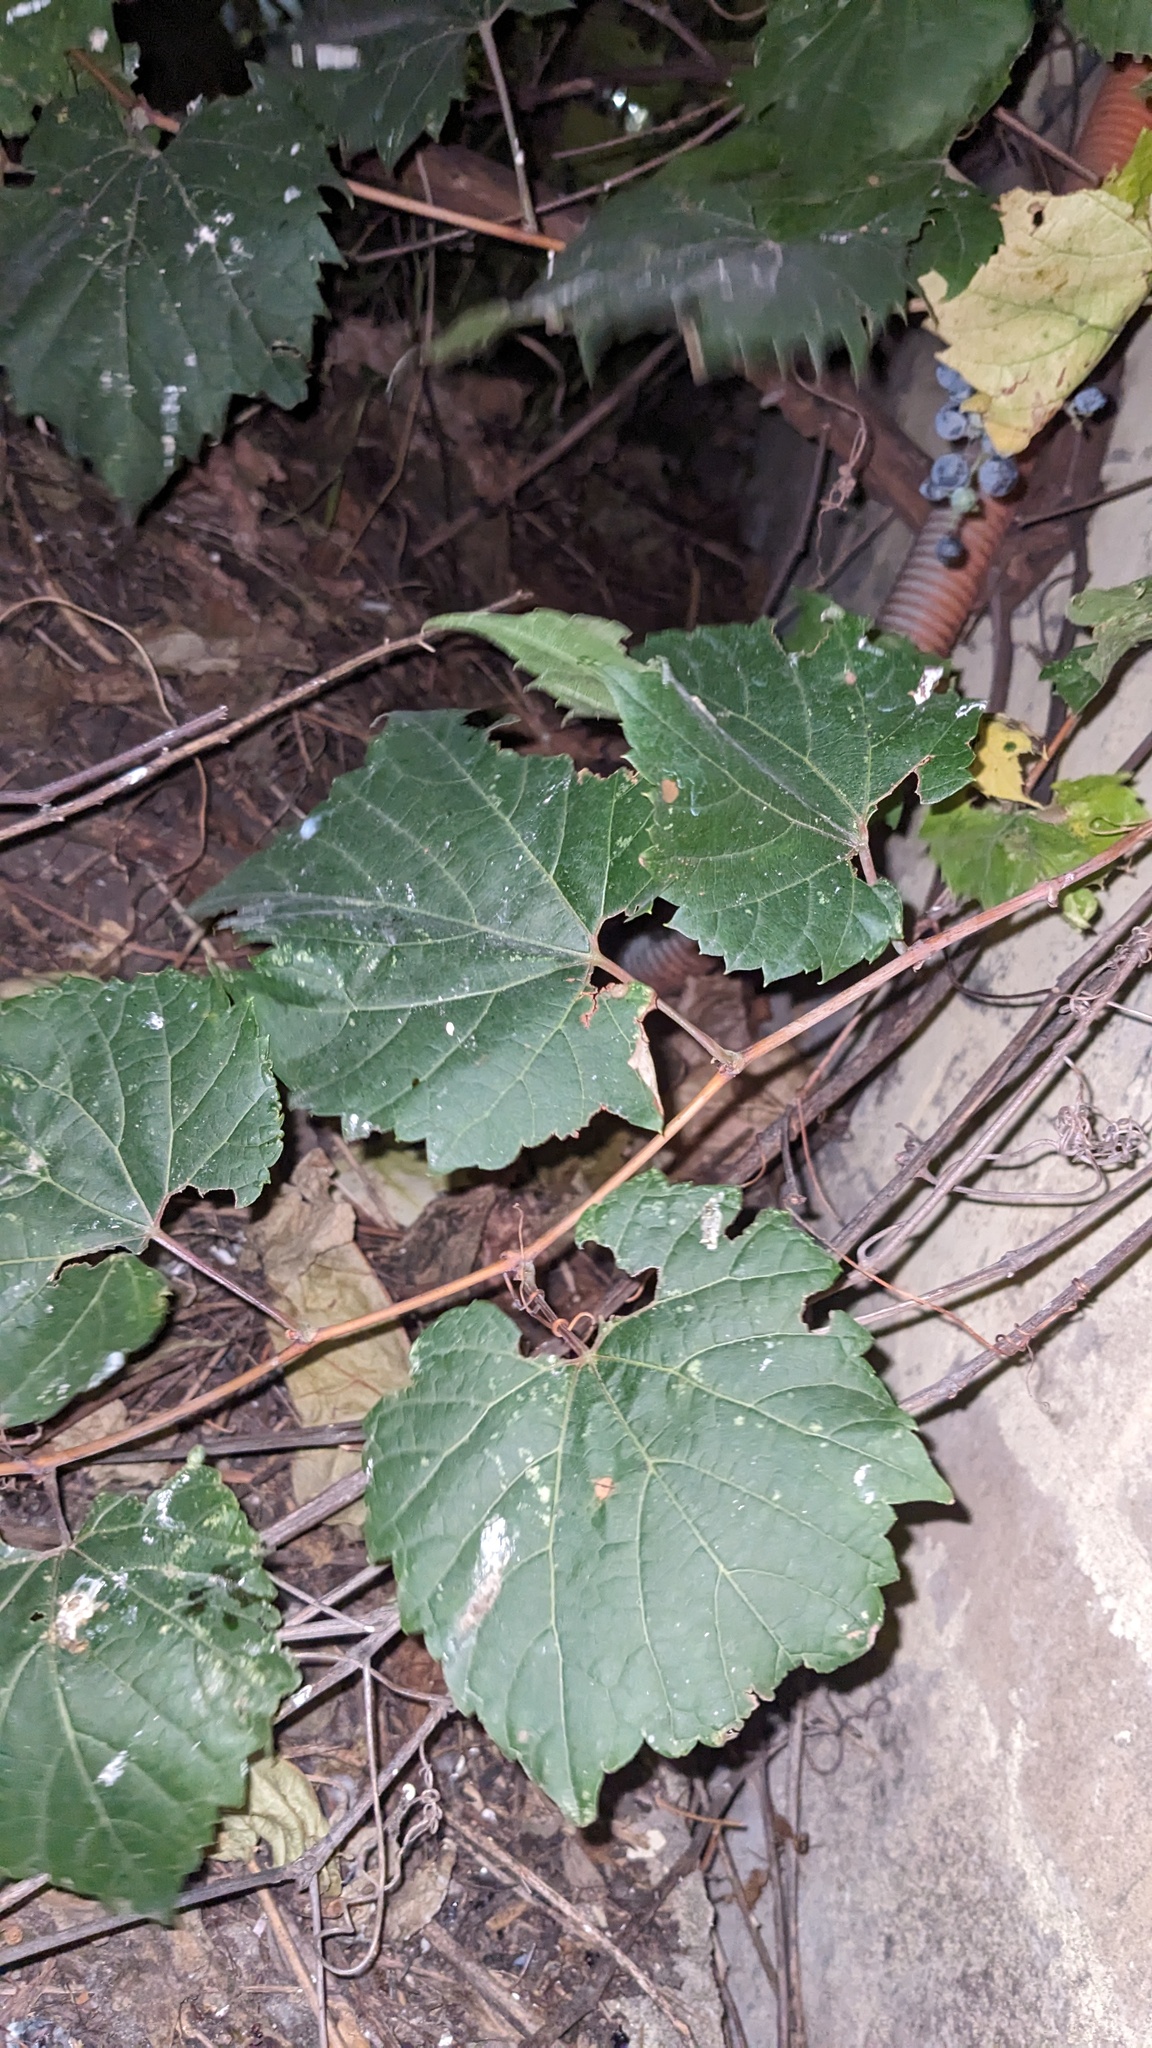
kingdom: Plantae
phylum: Tracheophyta
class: Magnoliopsida
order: Vitales
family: Vitaceae
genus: Vitis
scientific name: Vitis riparia
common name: Frost grape
